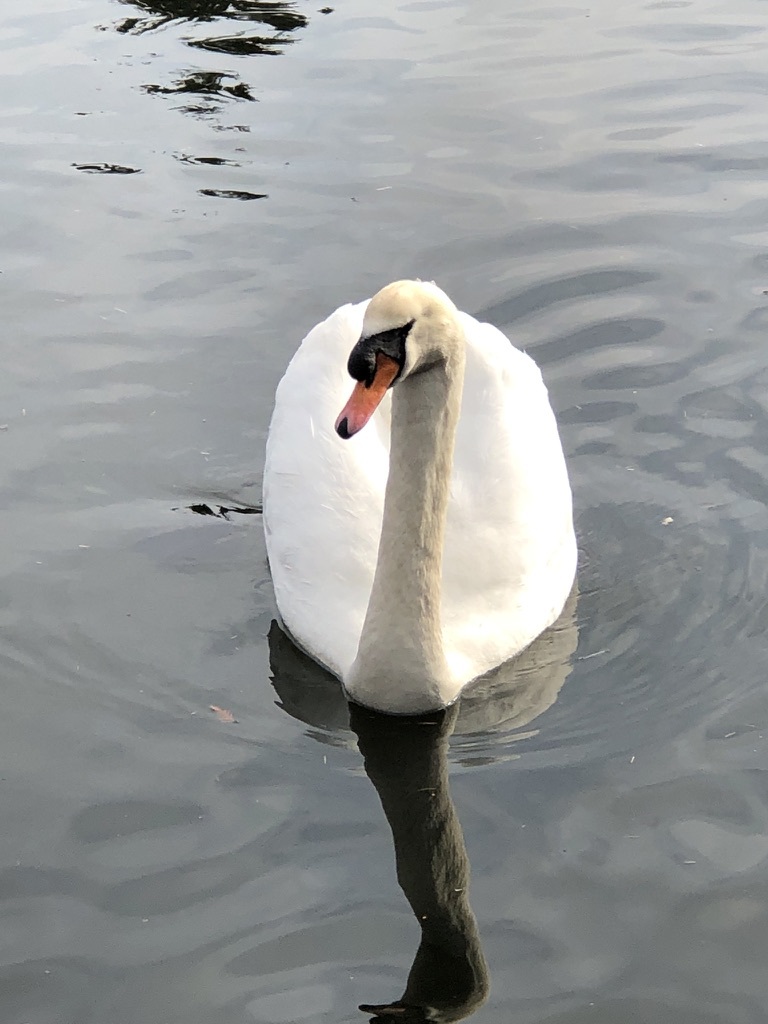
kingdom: Animalia
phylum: Chordata
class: Aves
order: Anseriformes
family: Anatidae
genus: Cygnus
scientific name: Cygnus olor
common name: Mute swan
